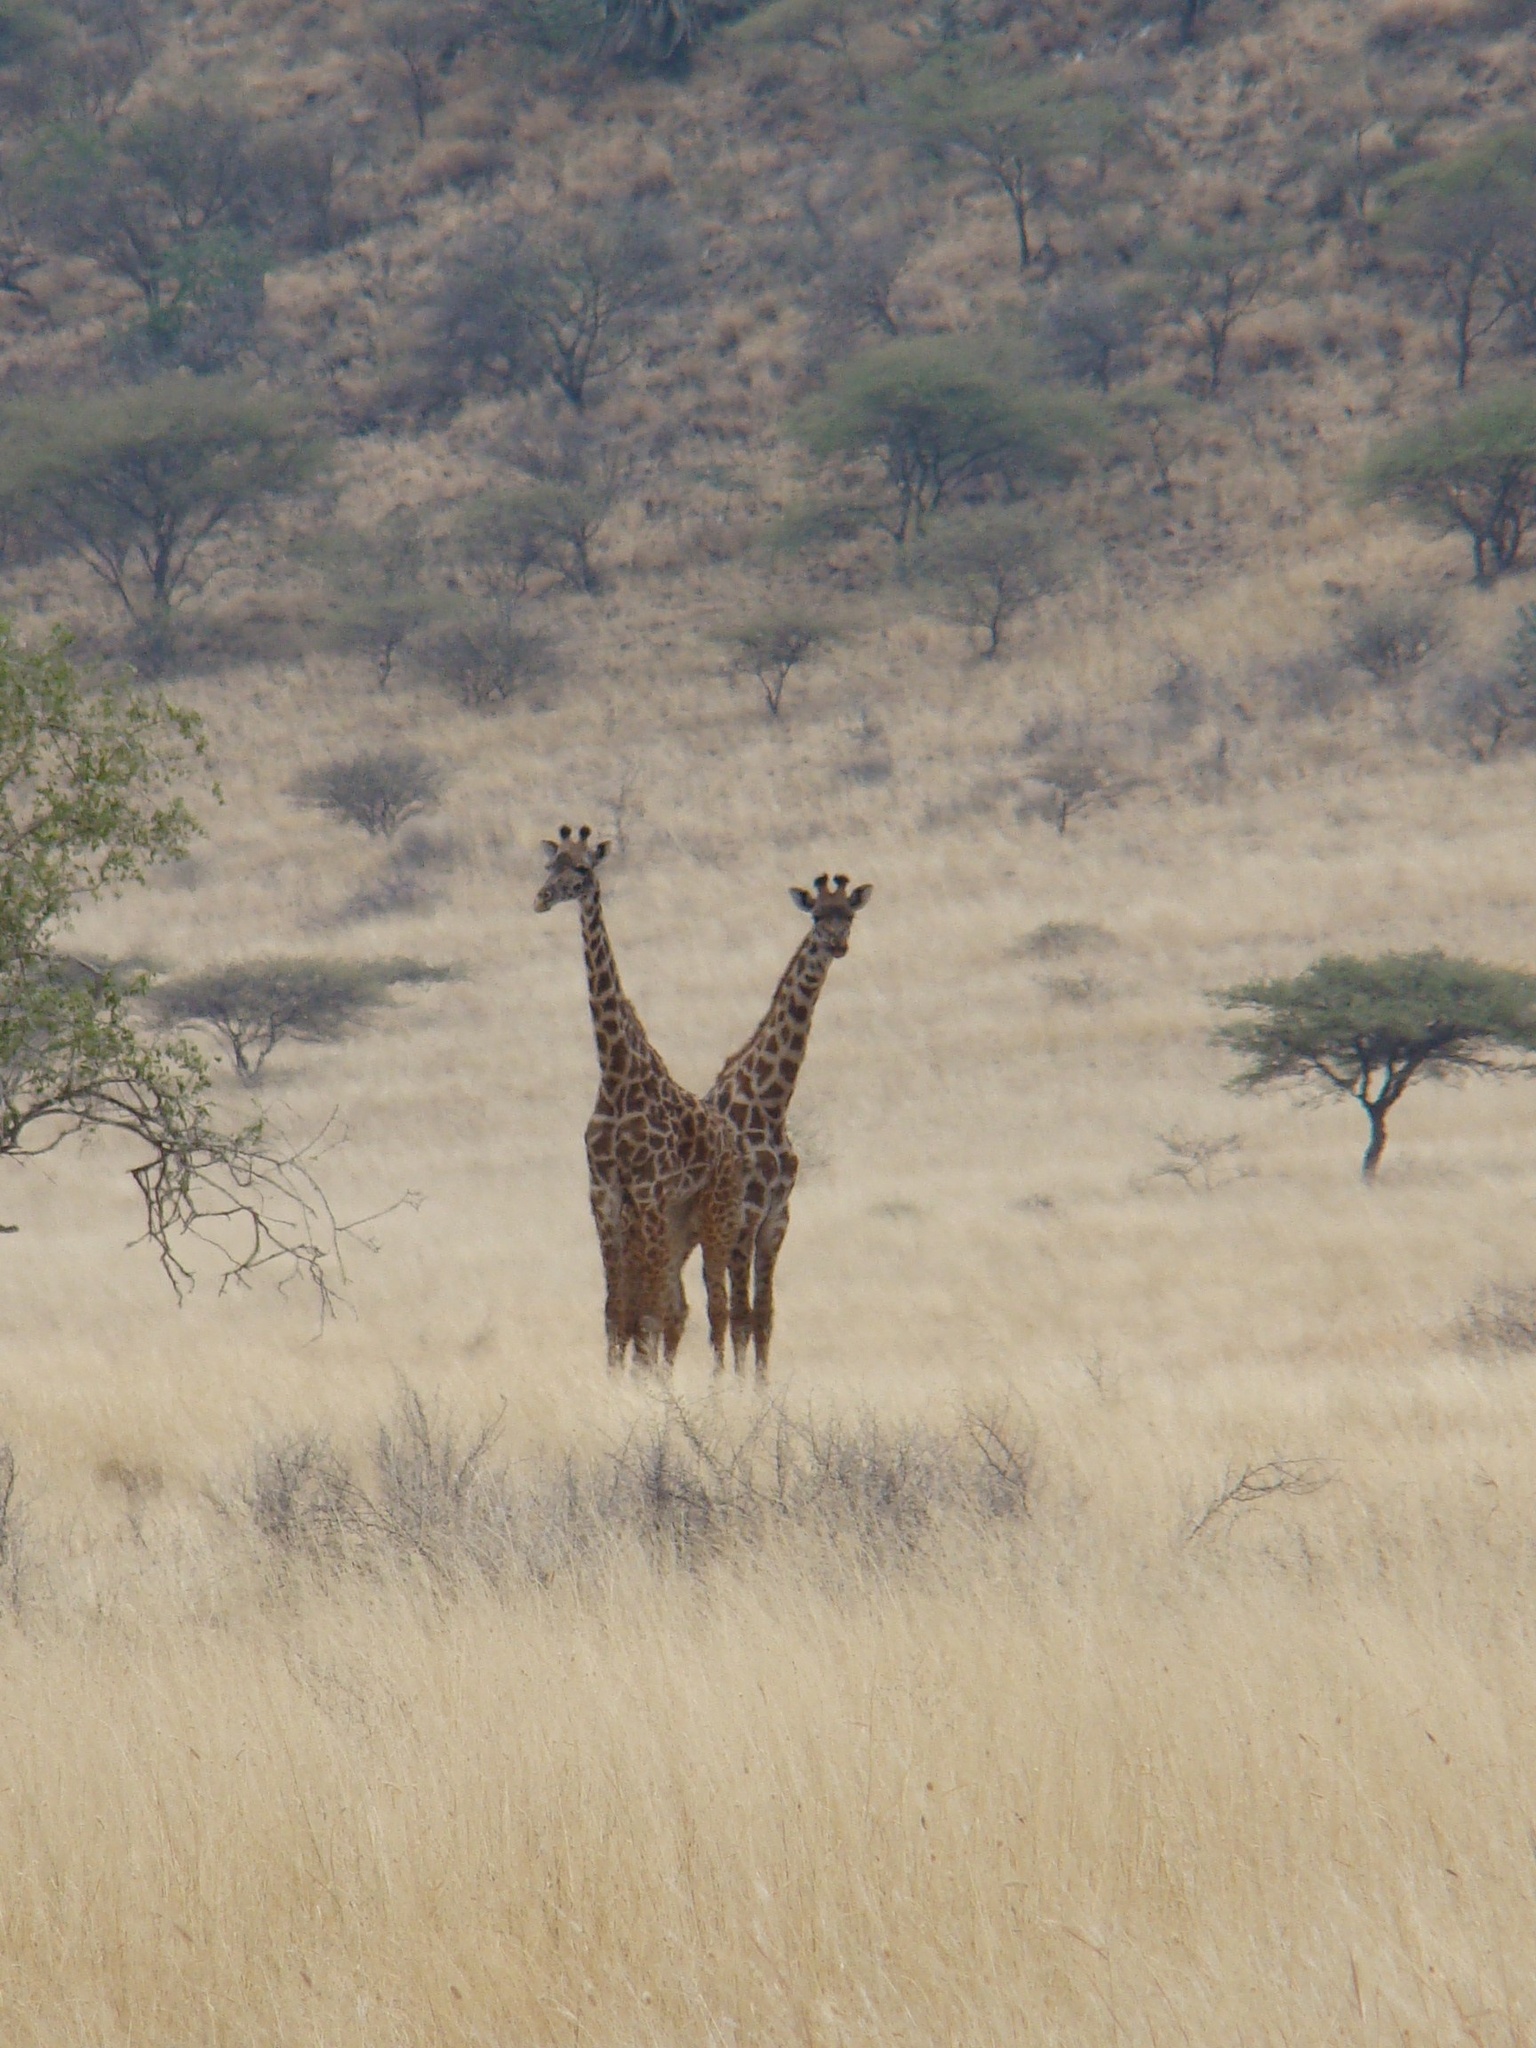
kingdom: Animalia
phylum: Chordata
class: Mammalia
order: Artiodactyla
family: Giraffidae
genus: Giraffa
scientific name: Giraffa tippelskirchi
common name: Masai giraffe
